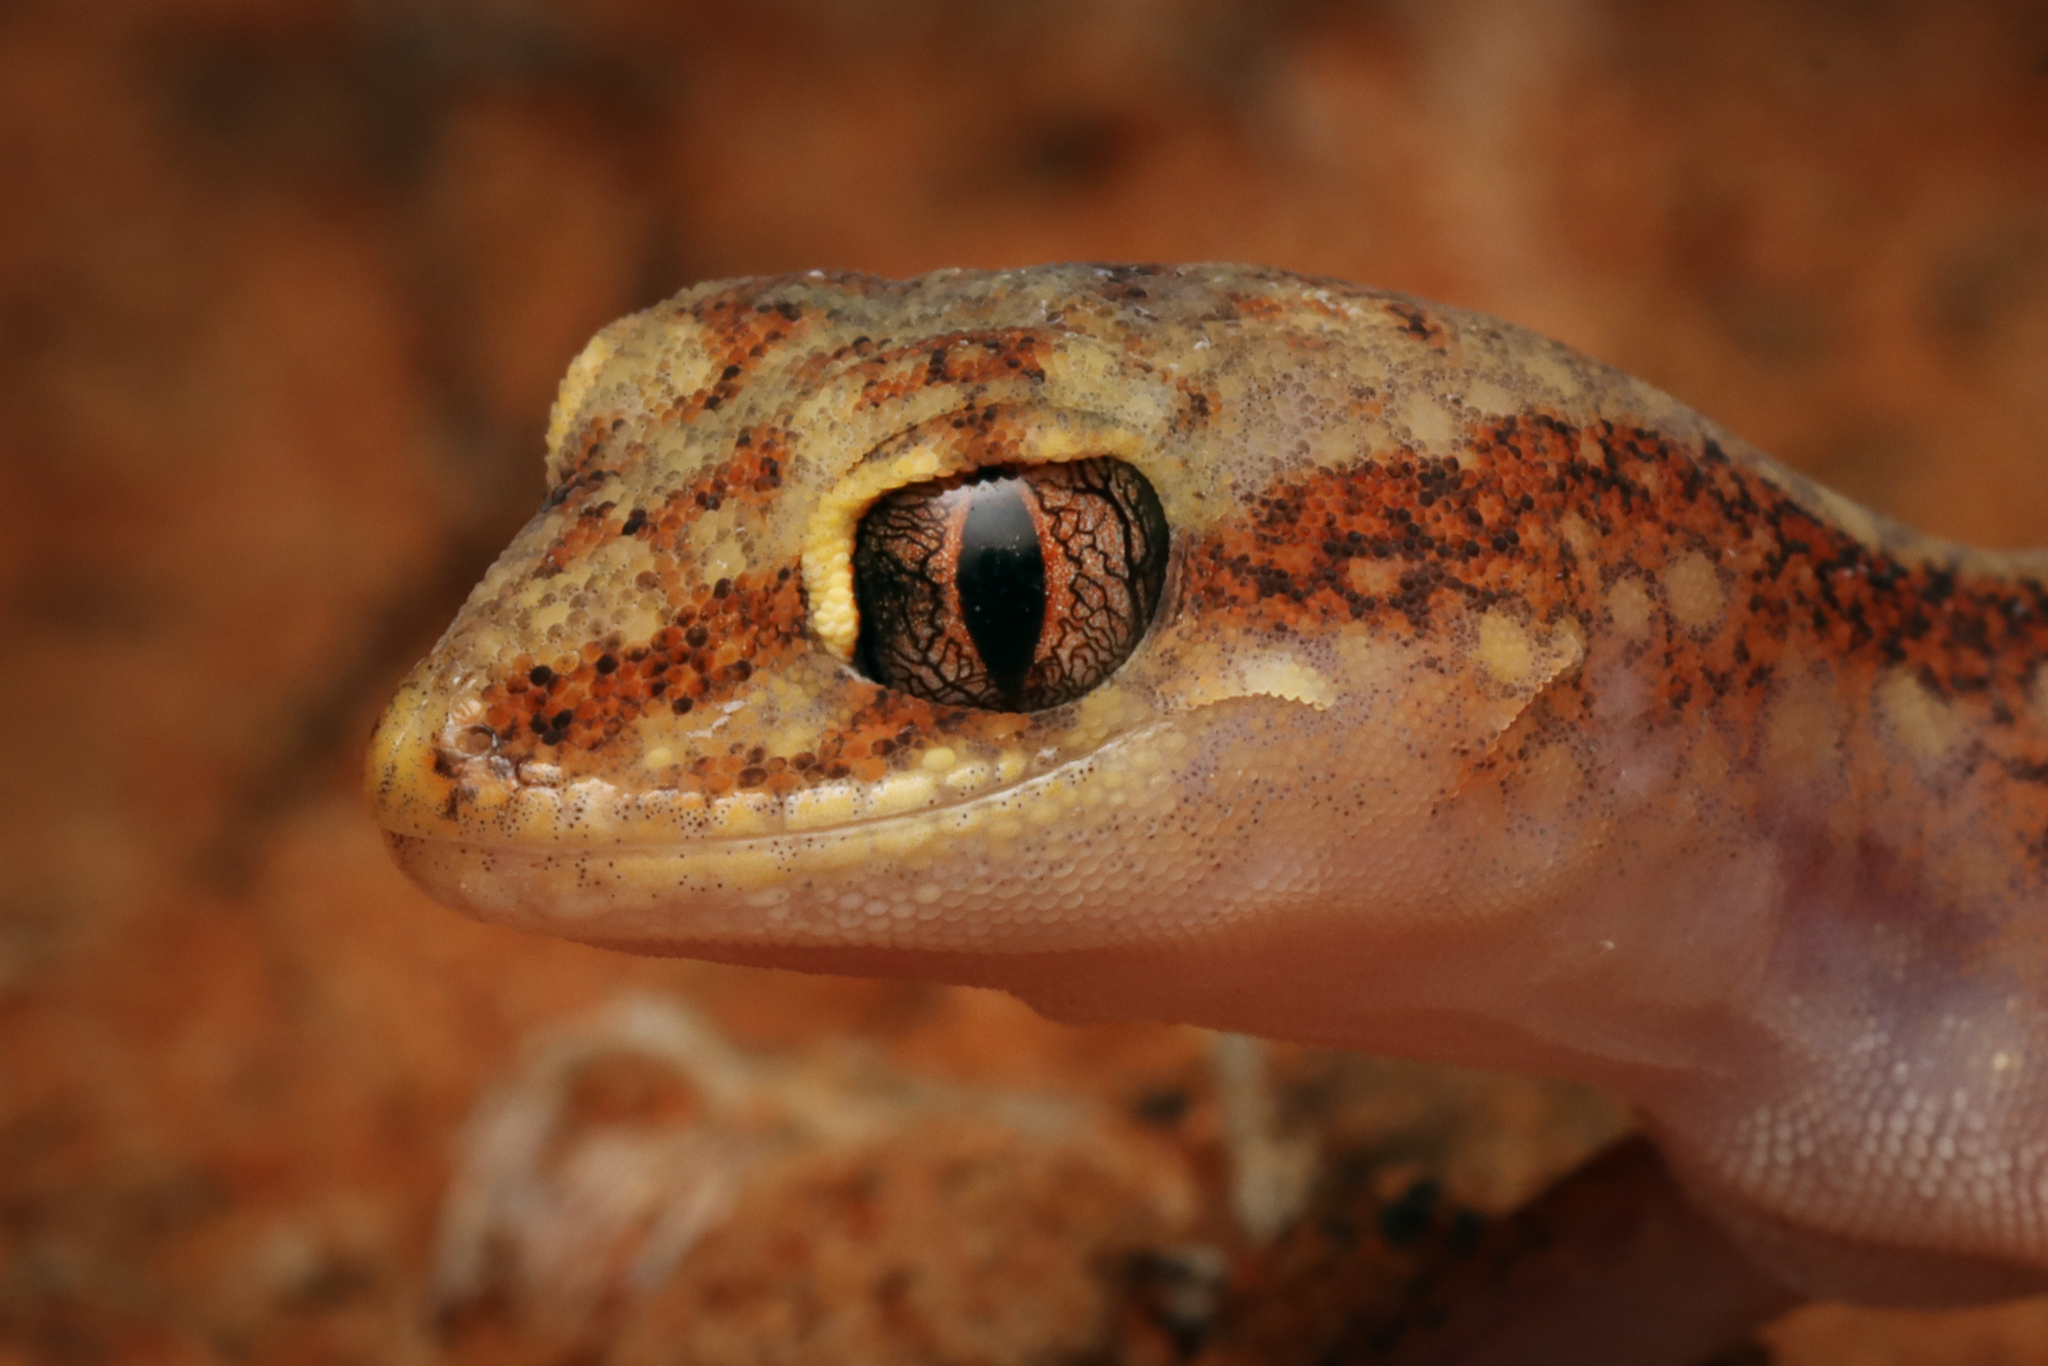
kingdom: Animalia
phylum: Chordata
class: Squamata
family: Diplodactylidae
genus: Lucasium
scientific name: Lucasium damaeum
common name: Beaded gecko
